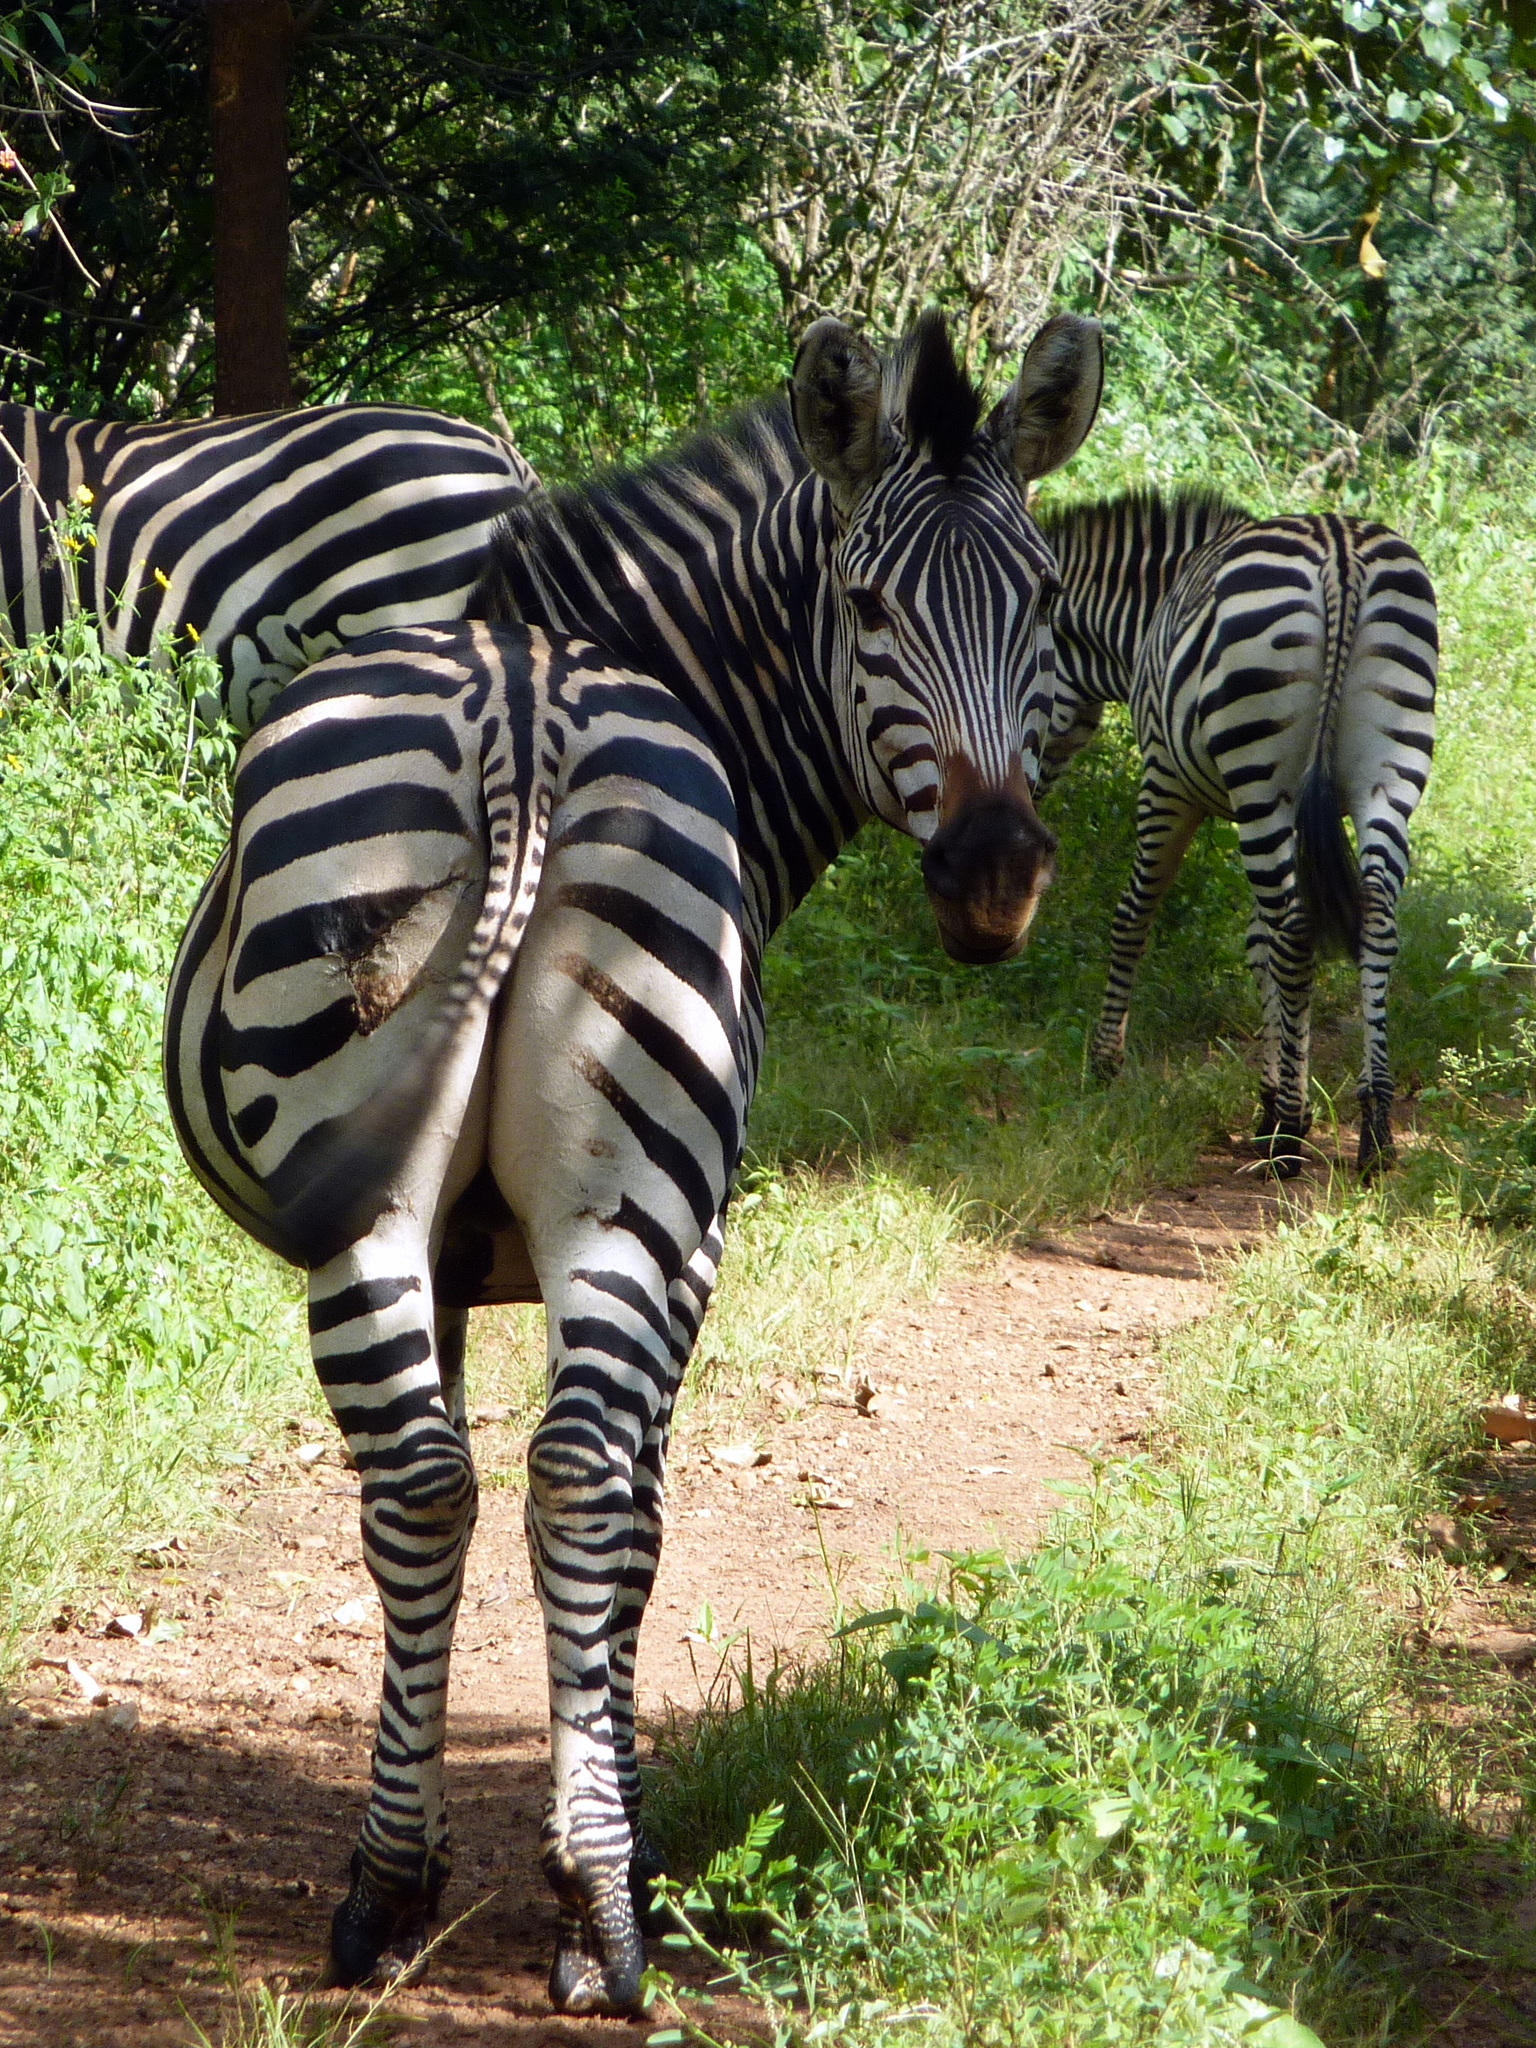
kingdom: Animalia
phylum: Chordata
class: Mammalia
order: Perissodactyla
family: Equidae
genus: Equus
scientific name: Equus quagga
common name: Plains zebra
